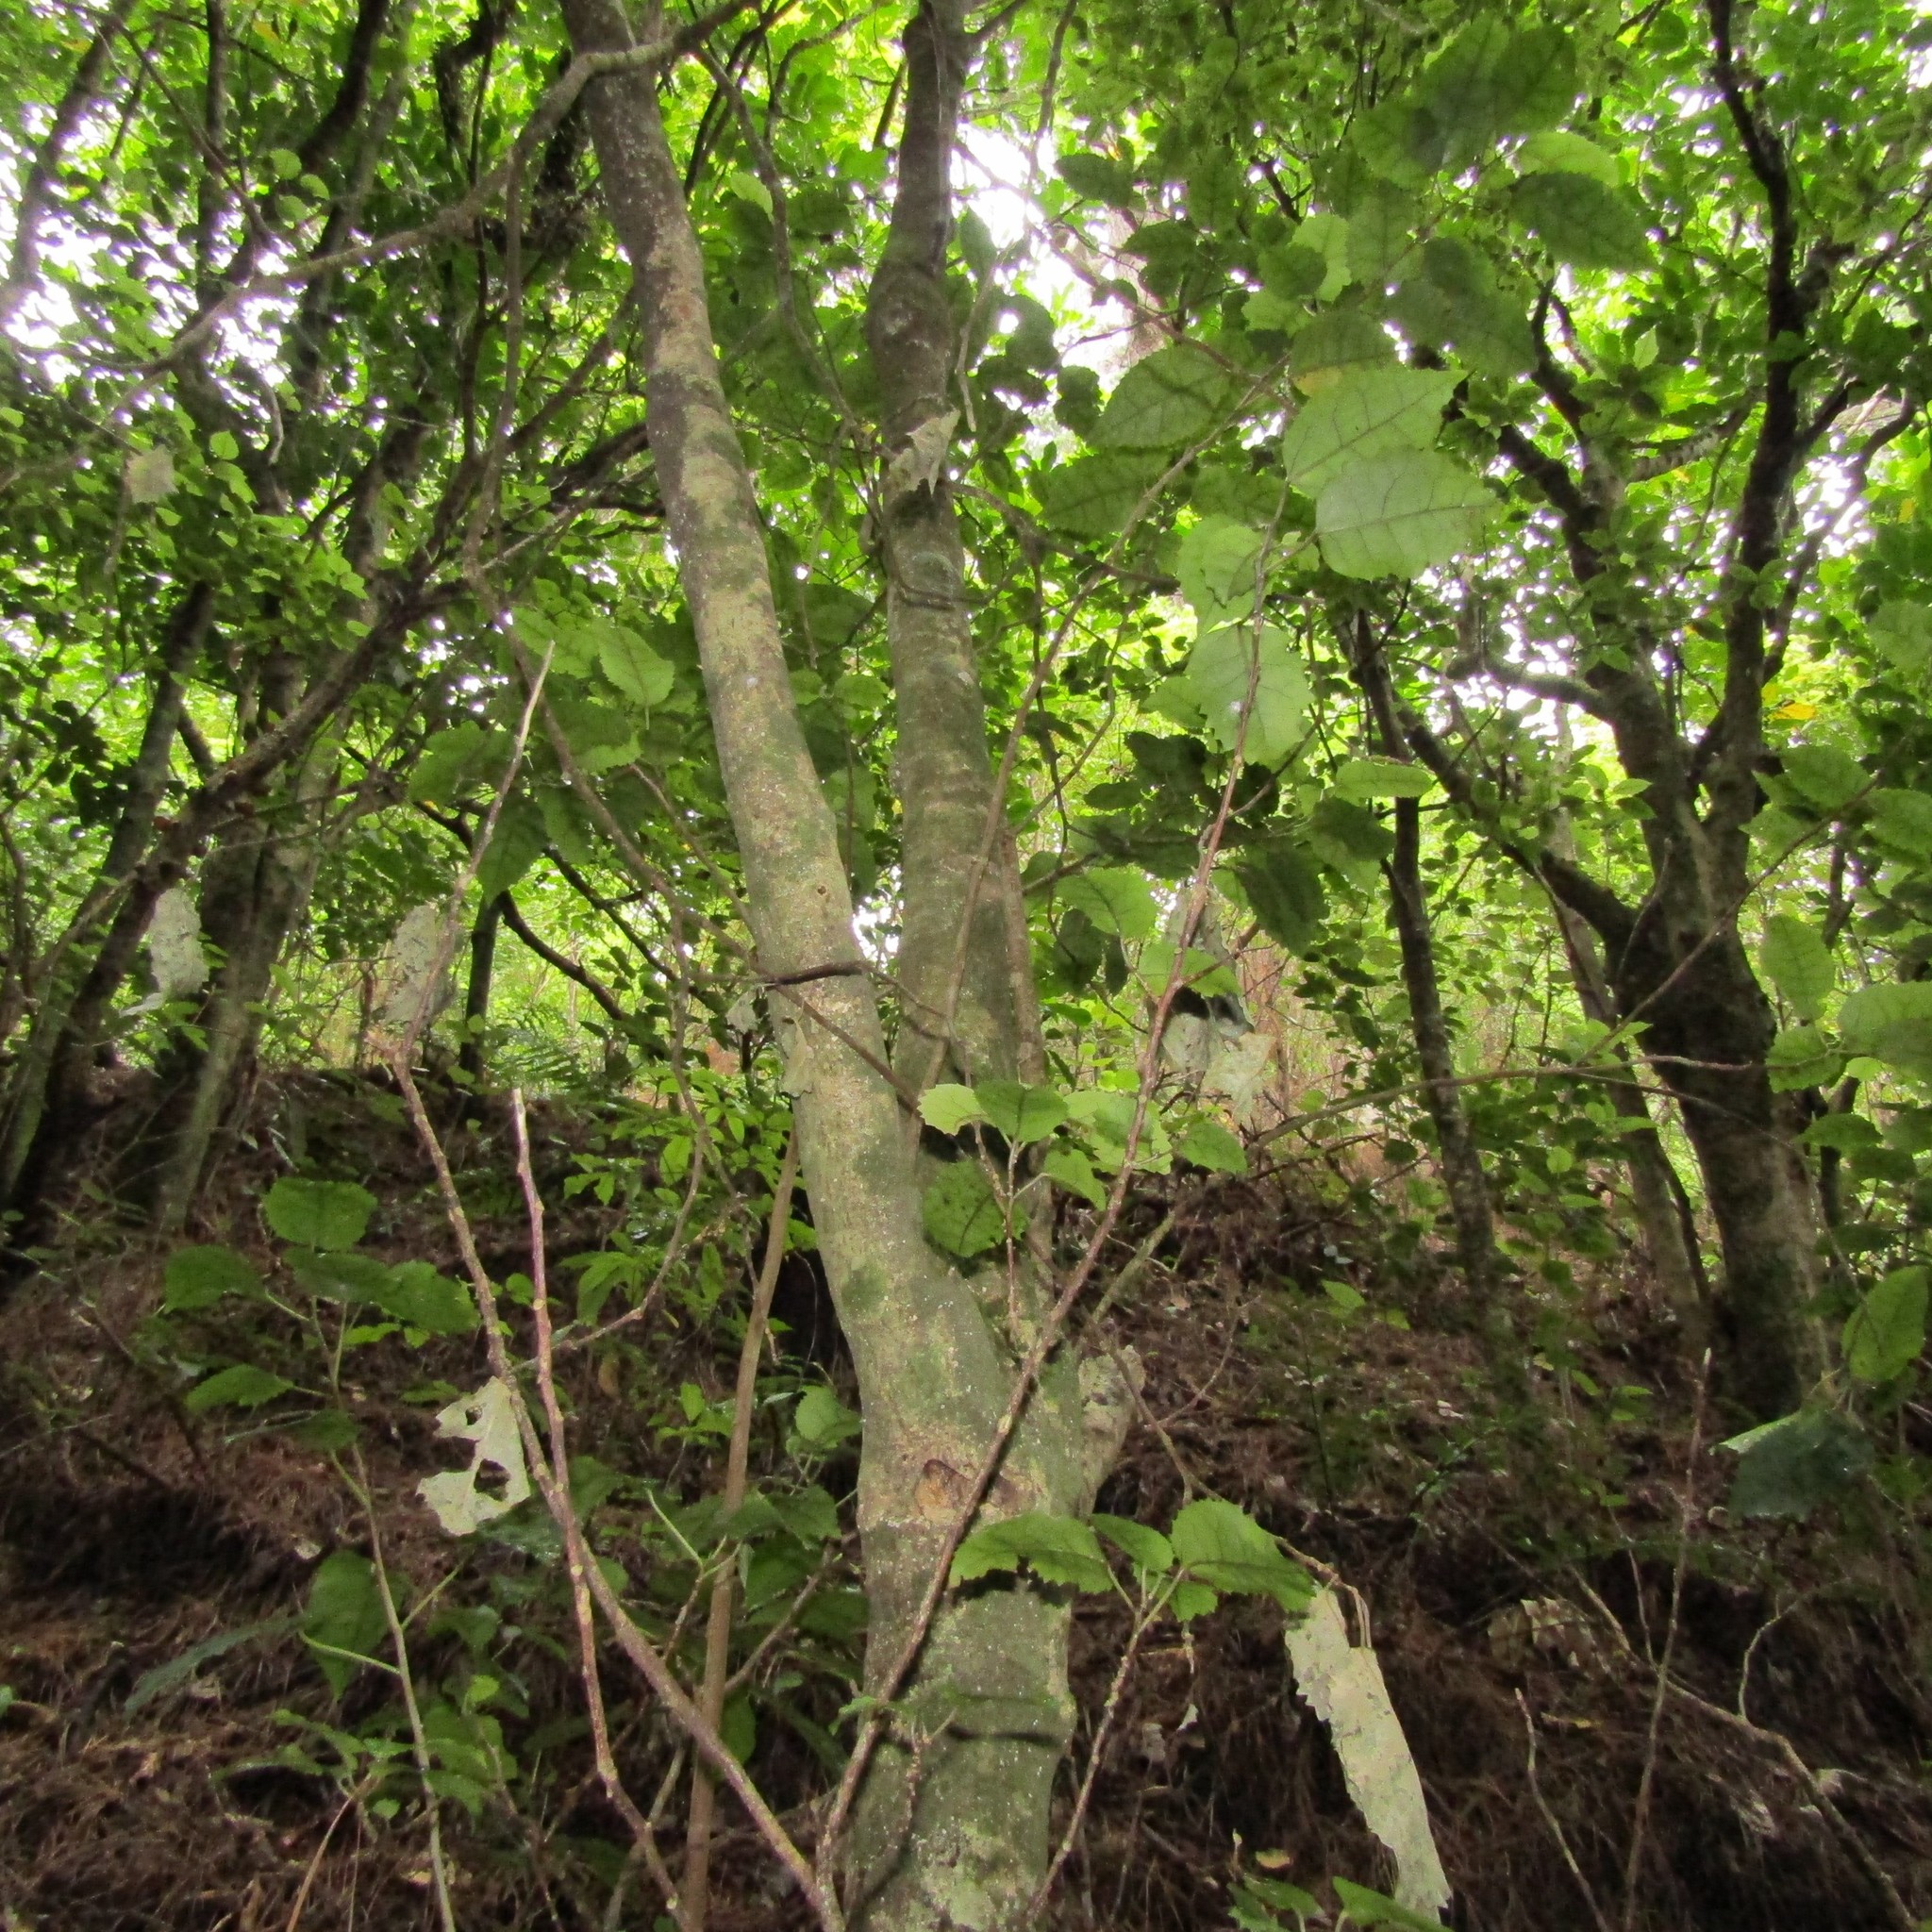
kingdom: Plantae
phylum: Tracheophyta
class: Magnoliopsida
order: Malvales
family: Malvaceae
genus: Hoheria
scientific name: Hoheria populnea
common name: Lacebark
